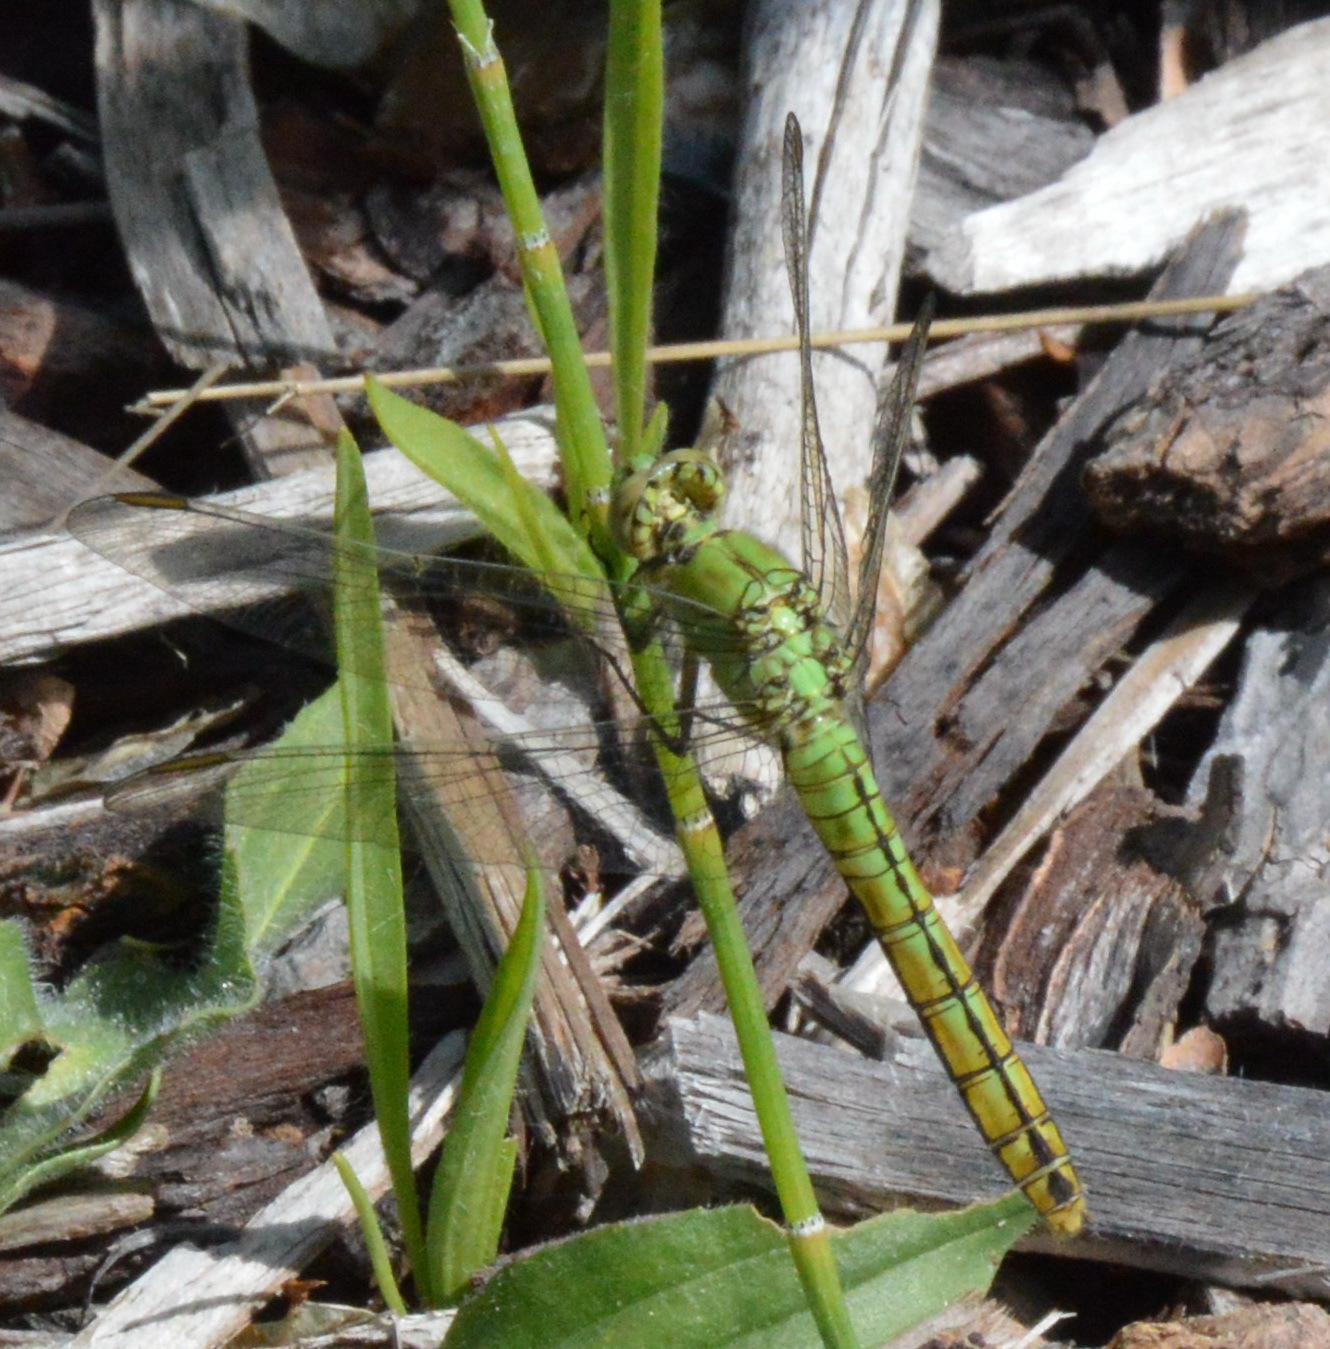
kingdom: Animalia
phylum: Arthropoda
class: Insecta
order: Odonata
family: Libellulidae
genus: Erythemis
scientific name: Erythemis collocata
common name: Western pondhawk
